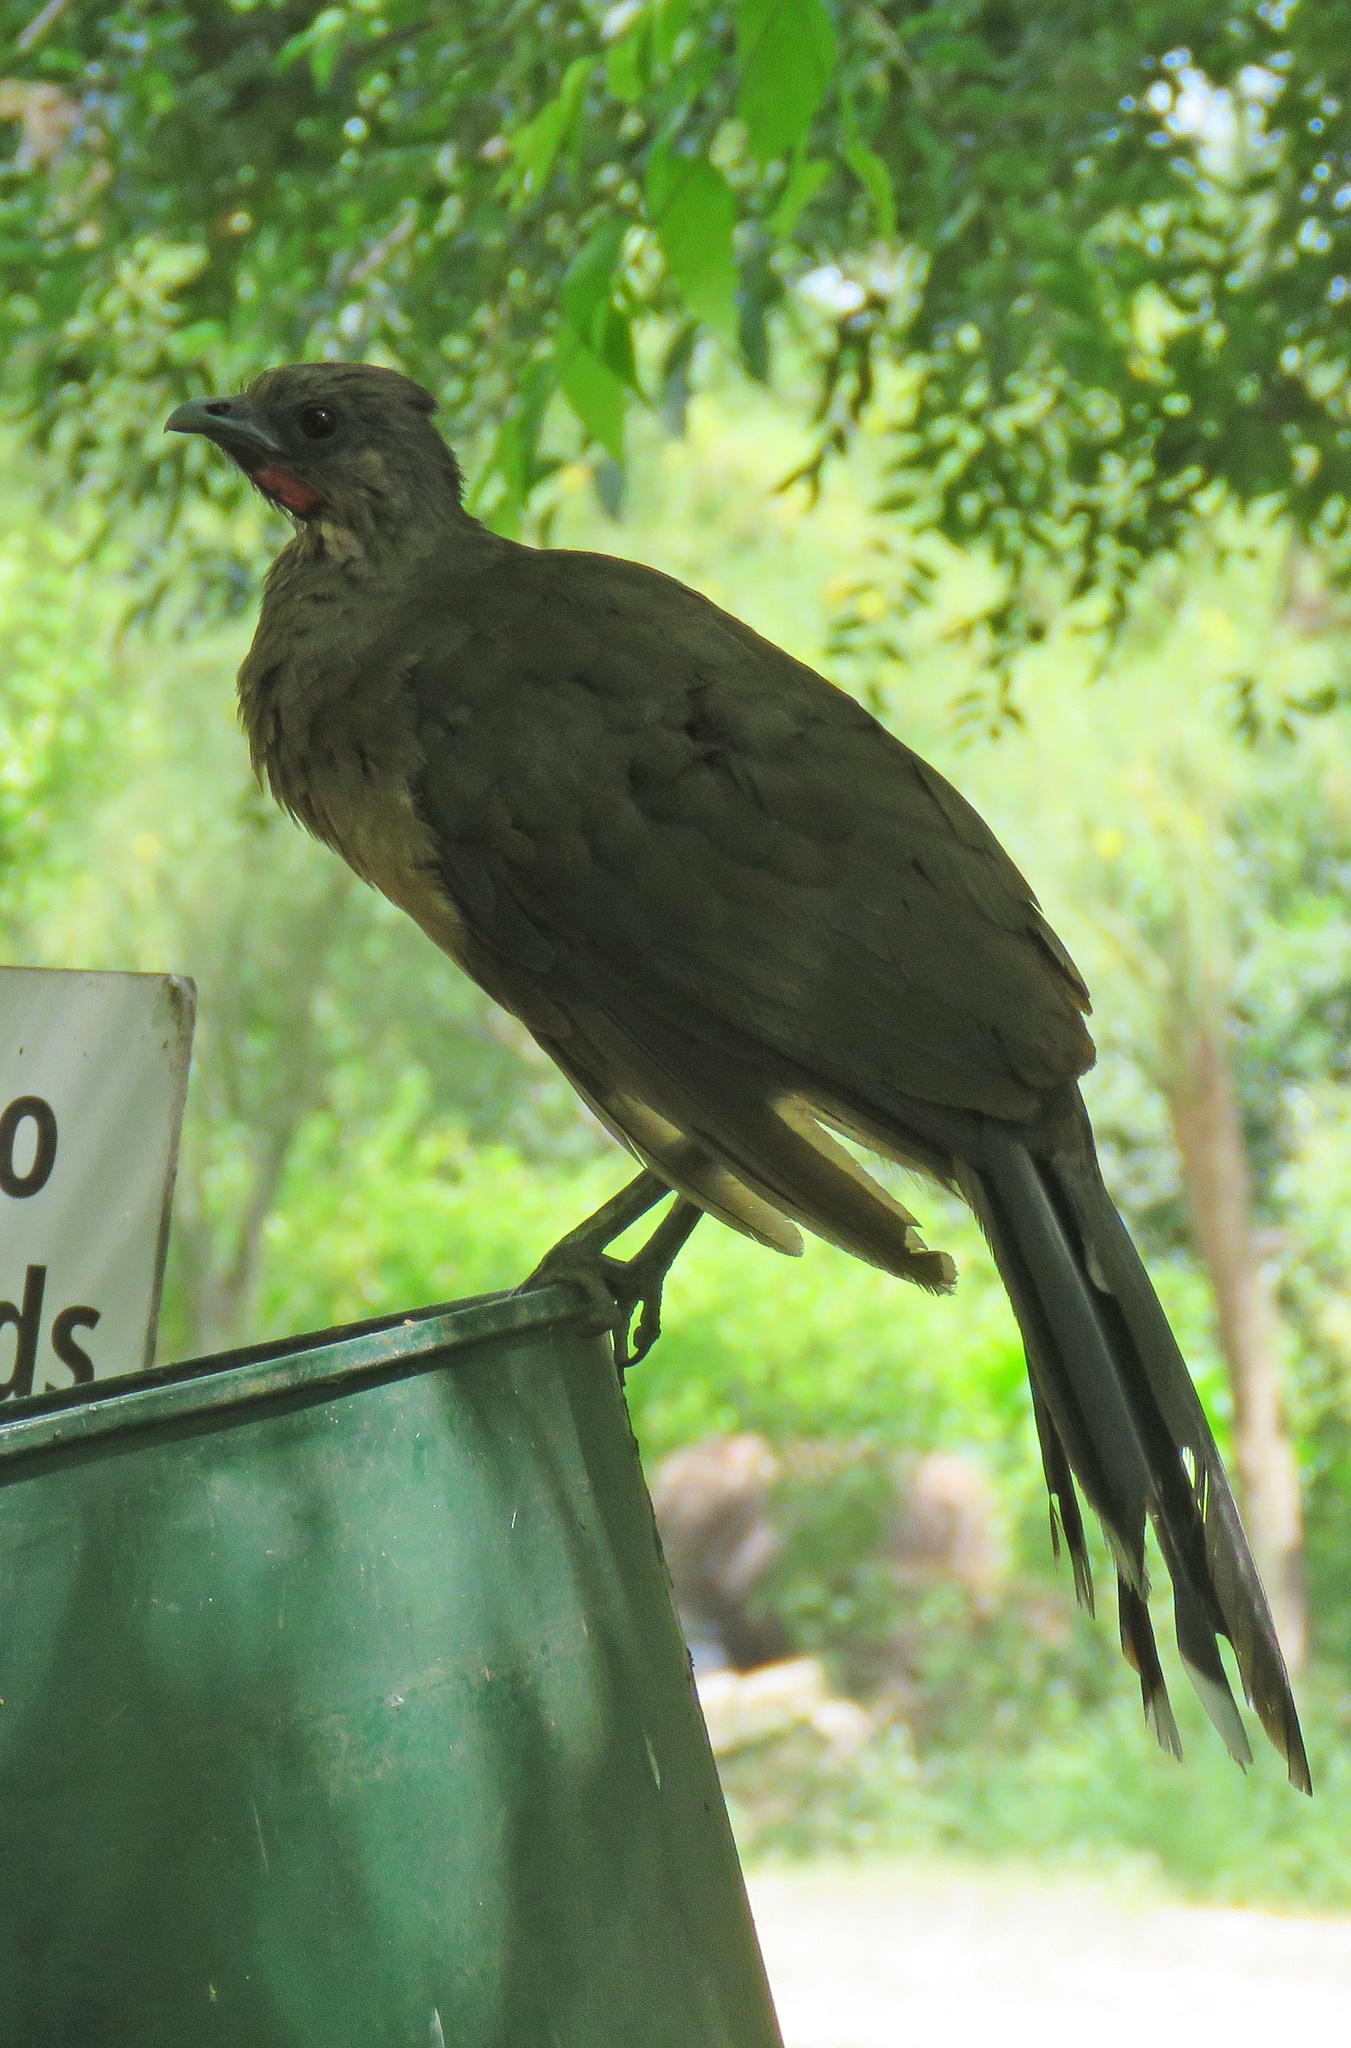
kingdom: Animalia
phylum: Chordata
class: Aves
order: Galliformes
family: Cracidae
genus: Ortalis
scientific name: Ortalis vetula
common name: Plain chachalaca
